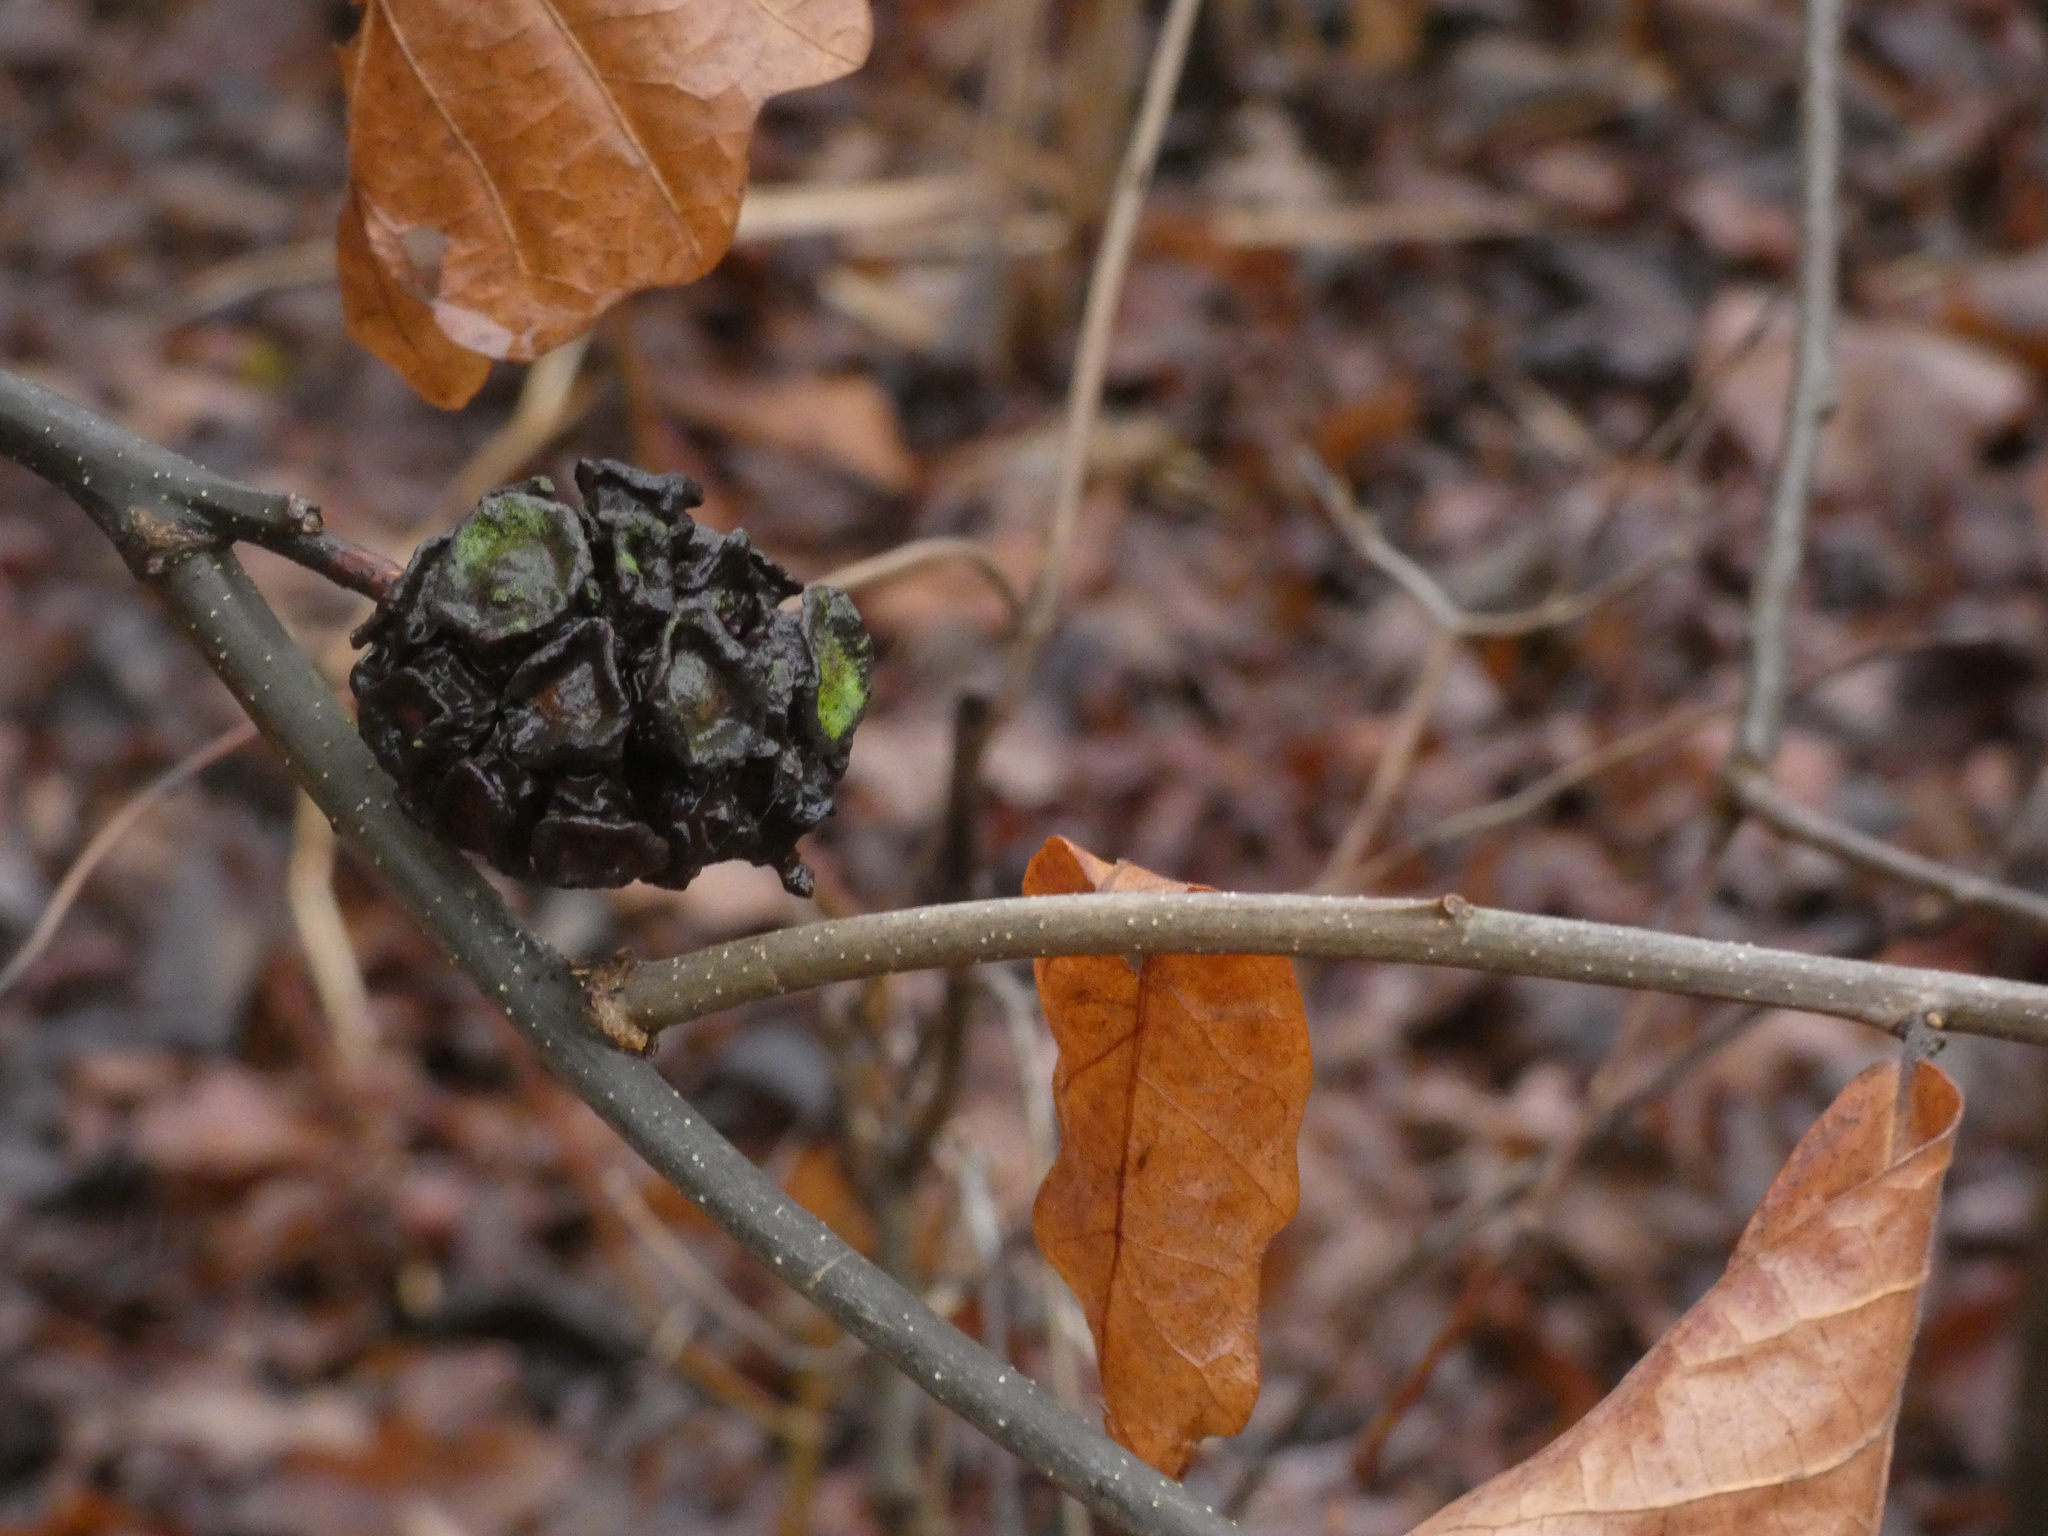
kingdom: Animalia
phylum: Arthropoda
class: Insecta
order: Hymenoptera
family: Cynipidae
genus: Andricus
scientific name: Andricus
